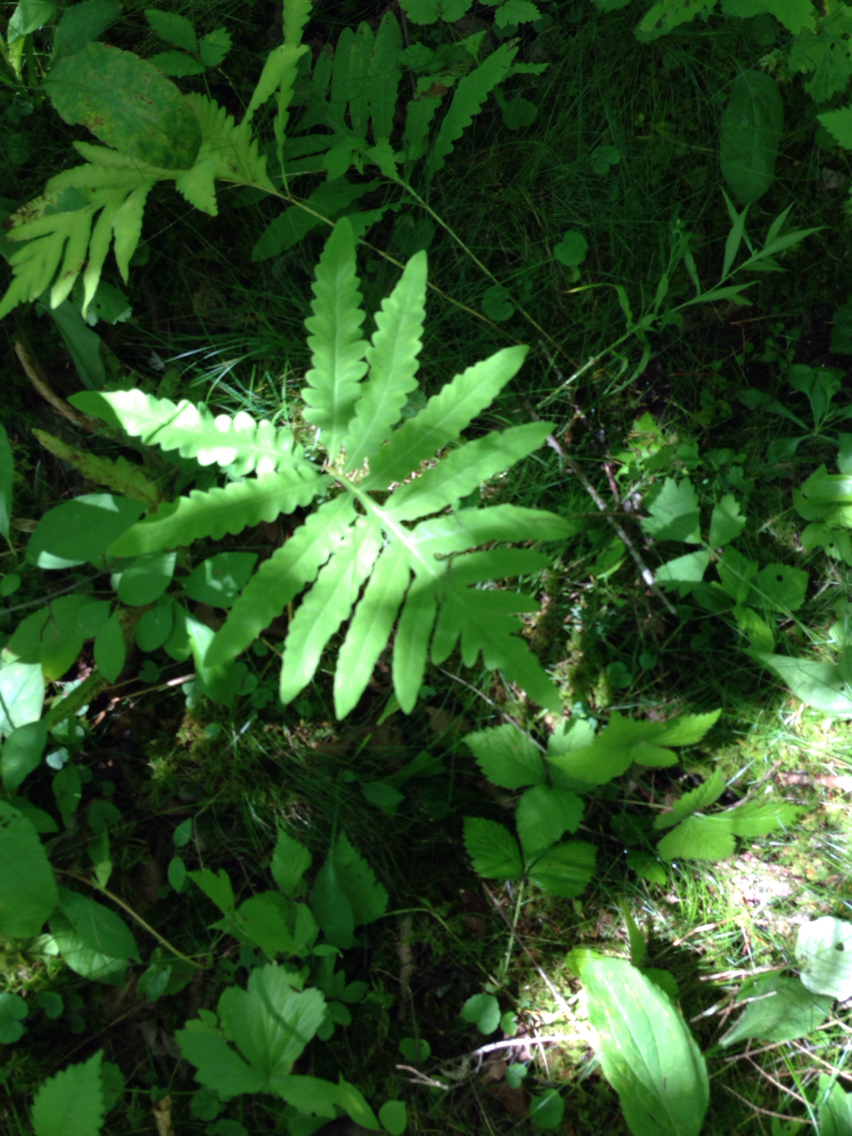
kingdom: Plantae
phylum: Tracheophyta
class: Polypodiopsida
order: Polypodiales
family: Onocleaceae
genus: Onoclea
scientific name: Onoclea sensibilis
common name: Sensitive fern
